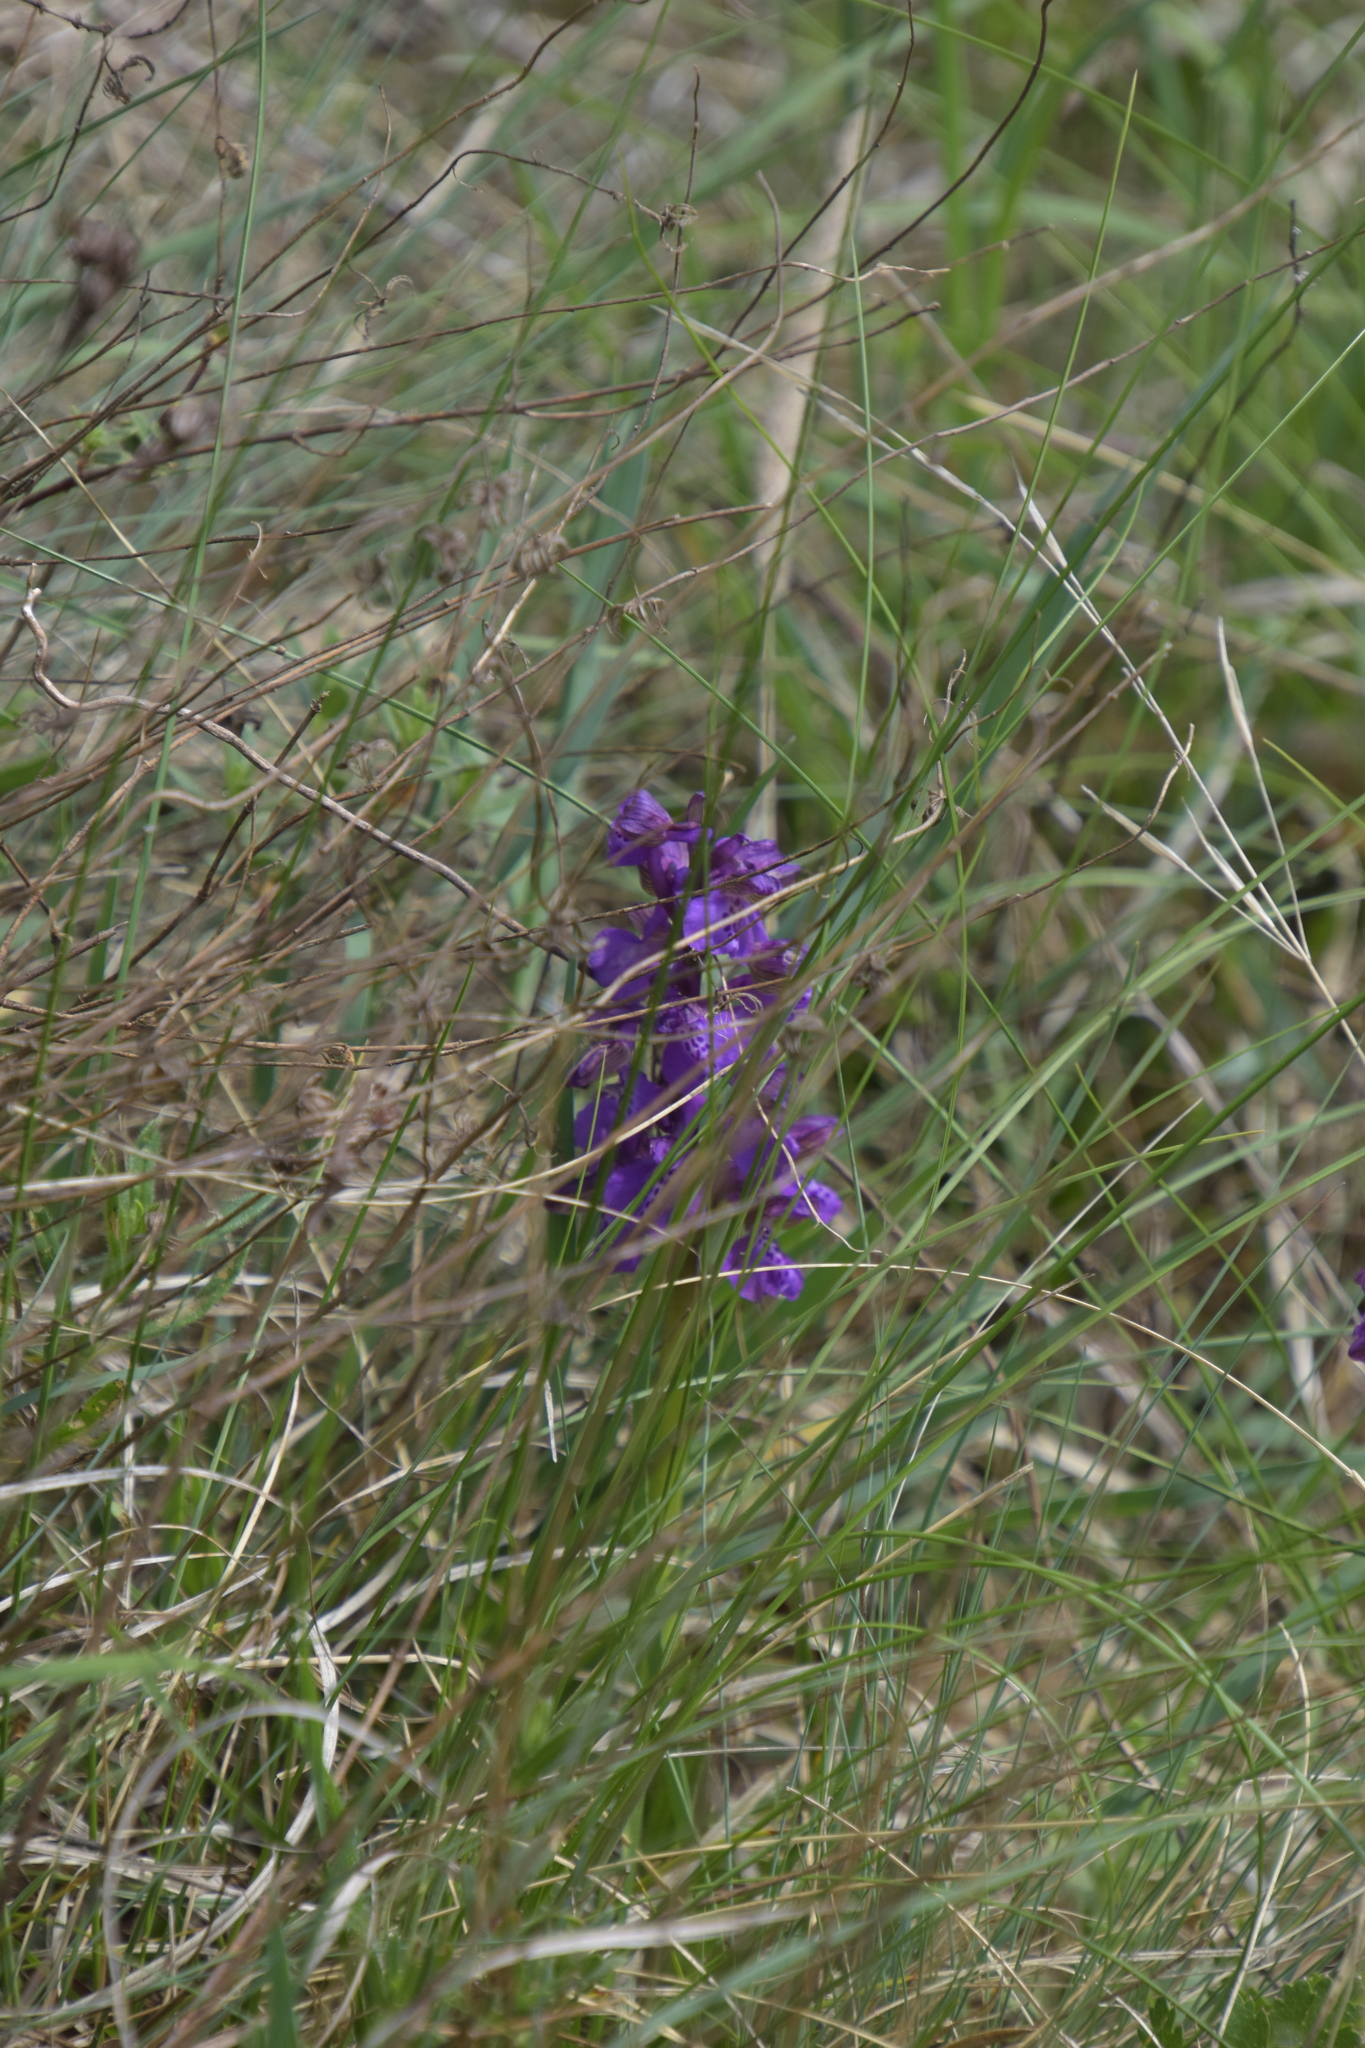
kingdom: Plantae
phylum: Tracheophyta
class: Liliopsida
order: Asparagales
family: Orchidaceae
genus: Anacamptis
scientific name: Anacamptis morio
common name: Green-winged orchid
